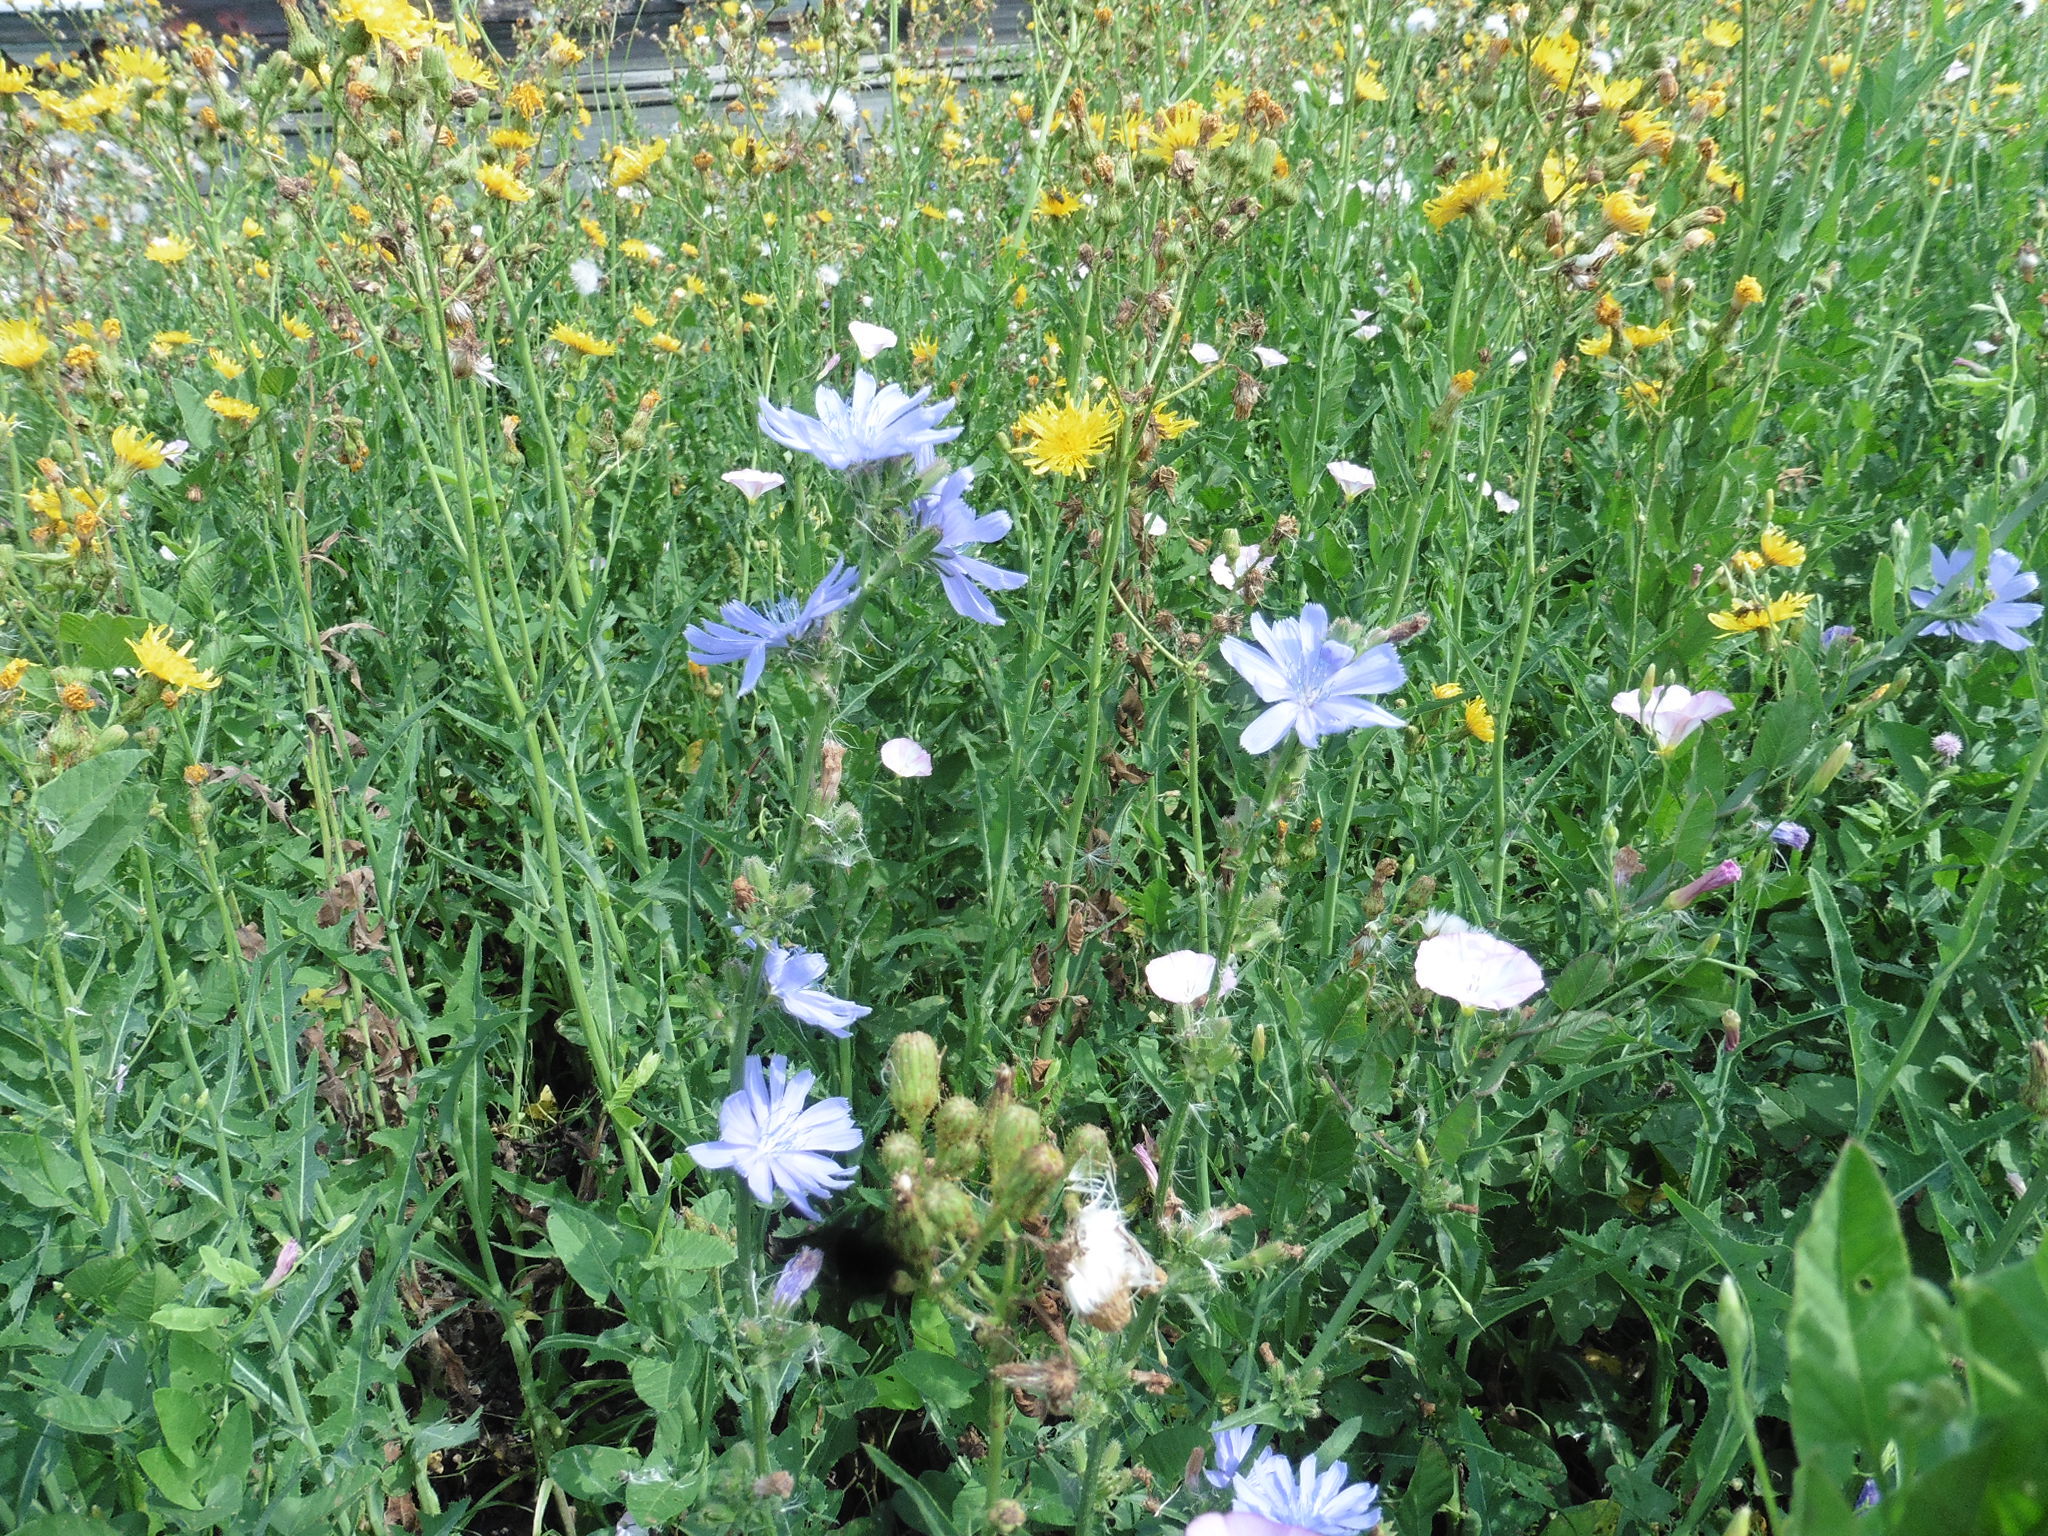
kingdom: Plantae
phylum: Tracheophyta
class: Magnoliopsida
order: Asterales
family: Asteraceae
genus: Cichorium
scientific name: Cichorium intybus
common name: Chicory
